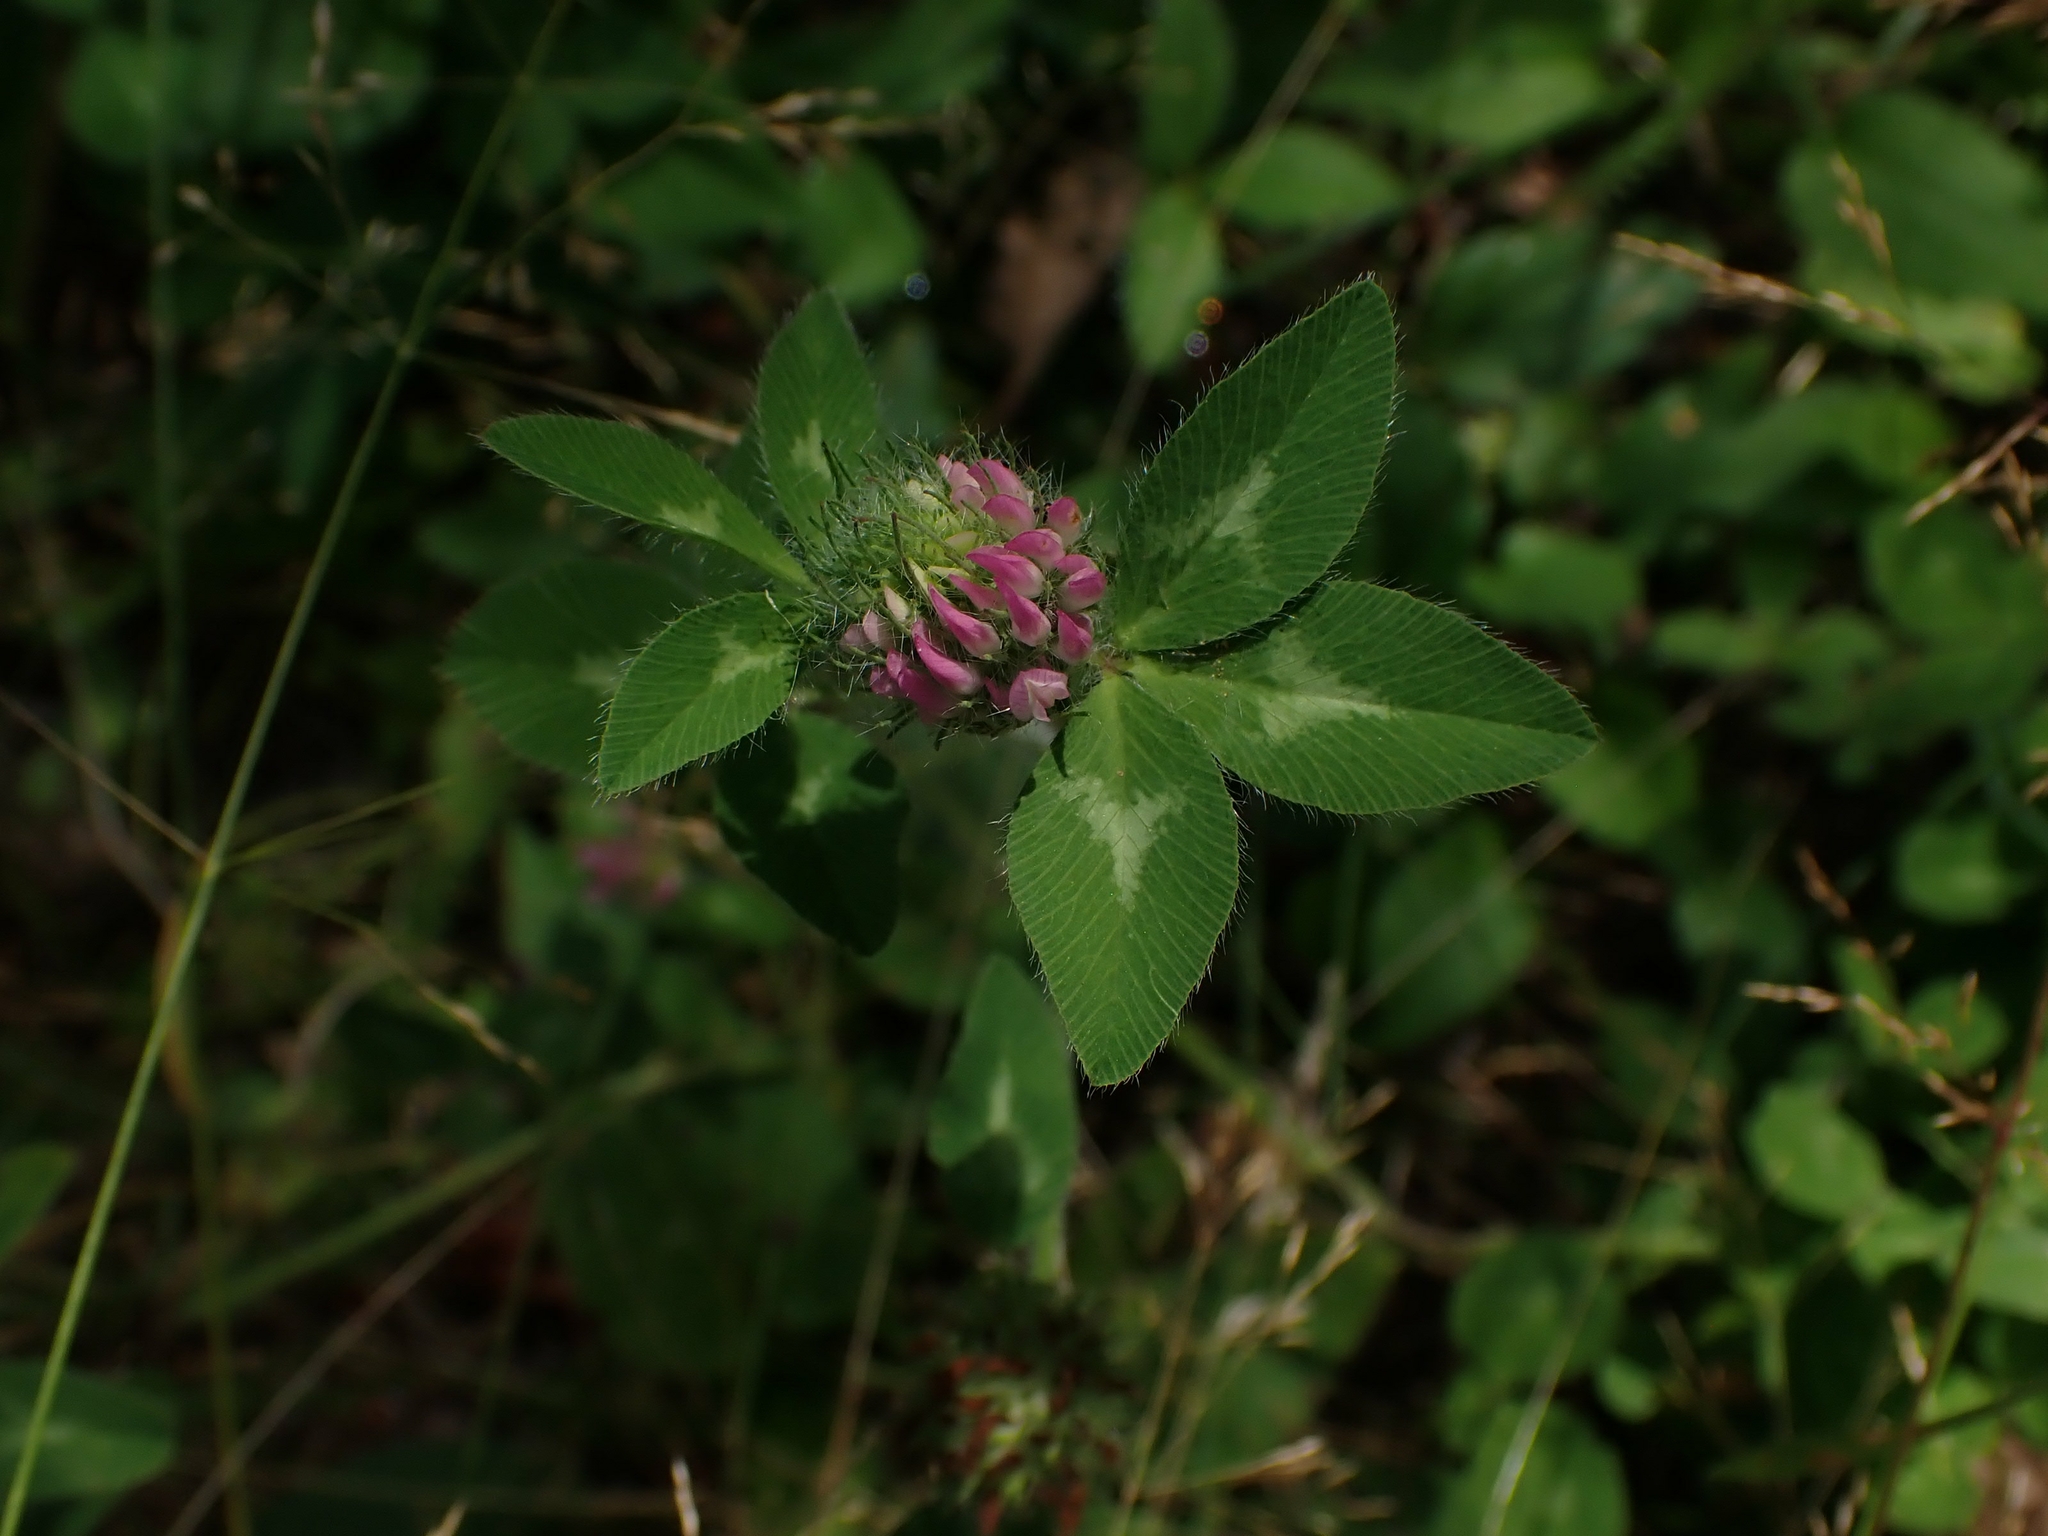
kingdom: Plantae
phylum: Tracheophyta
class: Magnoliopsida
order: Fabales
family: Fabaceae
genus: Trifolium
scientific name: Trifolium pratense
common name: Red clover
